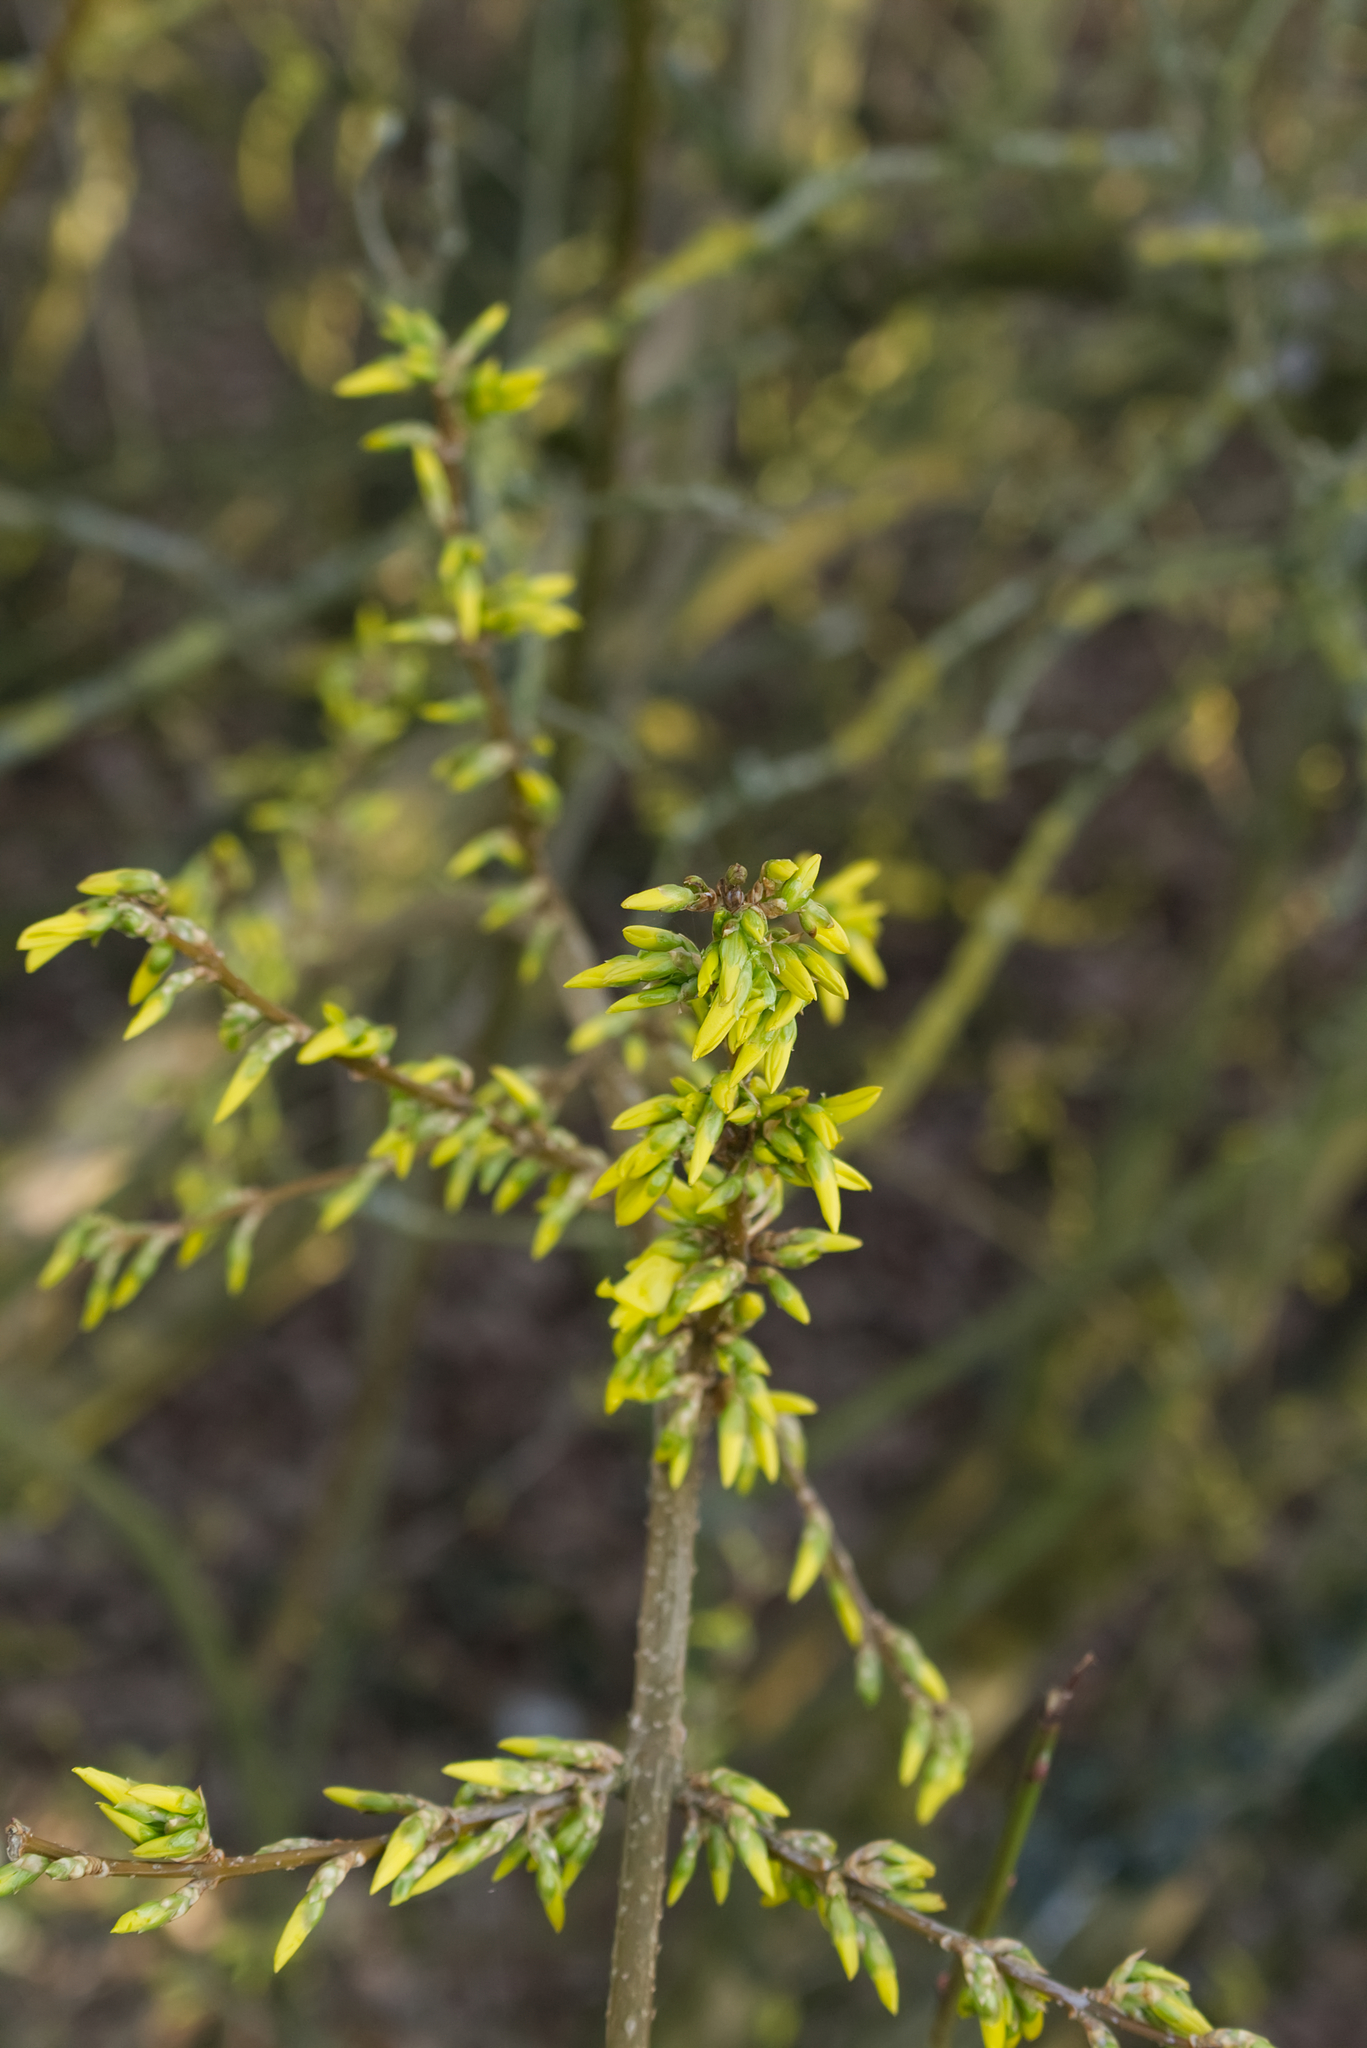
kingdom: Plantae
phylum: Tracheophyta
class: Magnoliopsida
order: Lamiales
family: Oleaceae
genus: Forsythia
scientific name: Forsythia intermedia
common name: Forsythia
